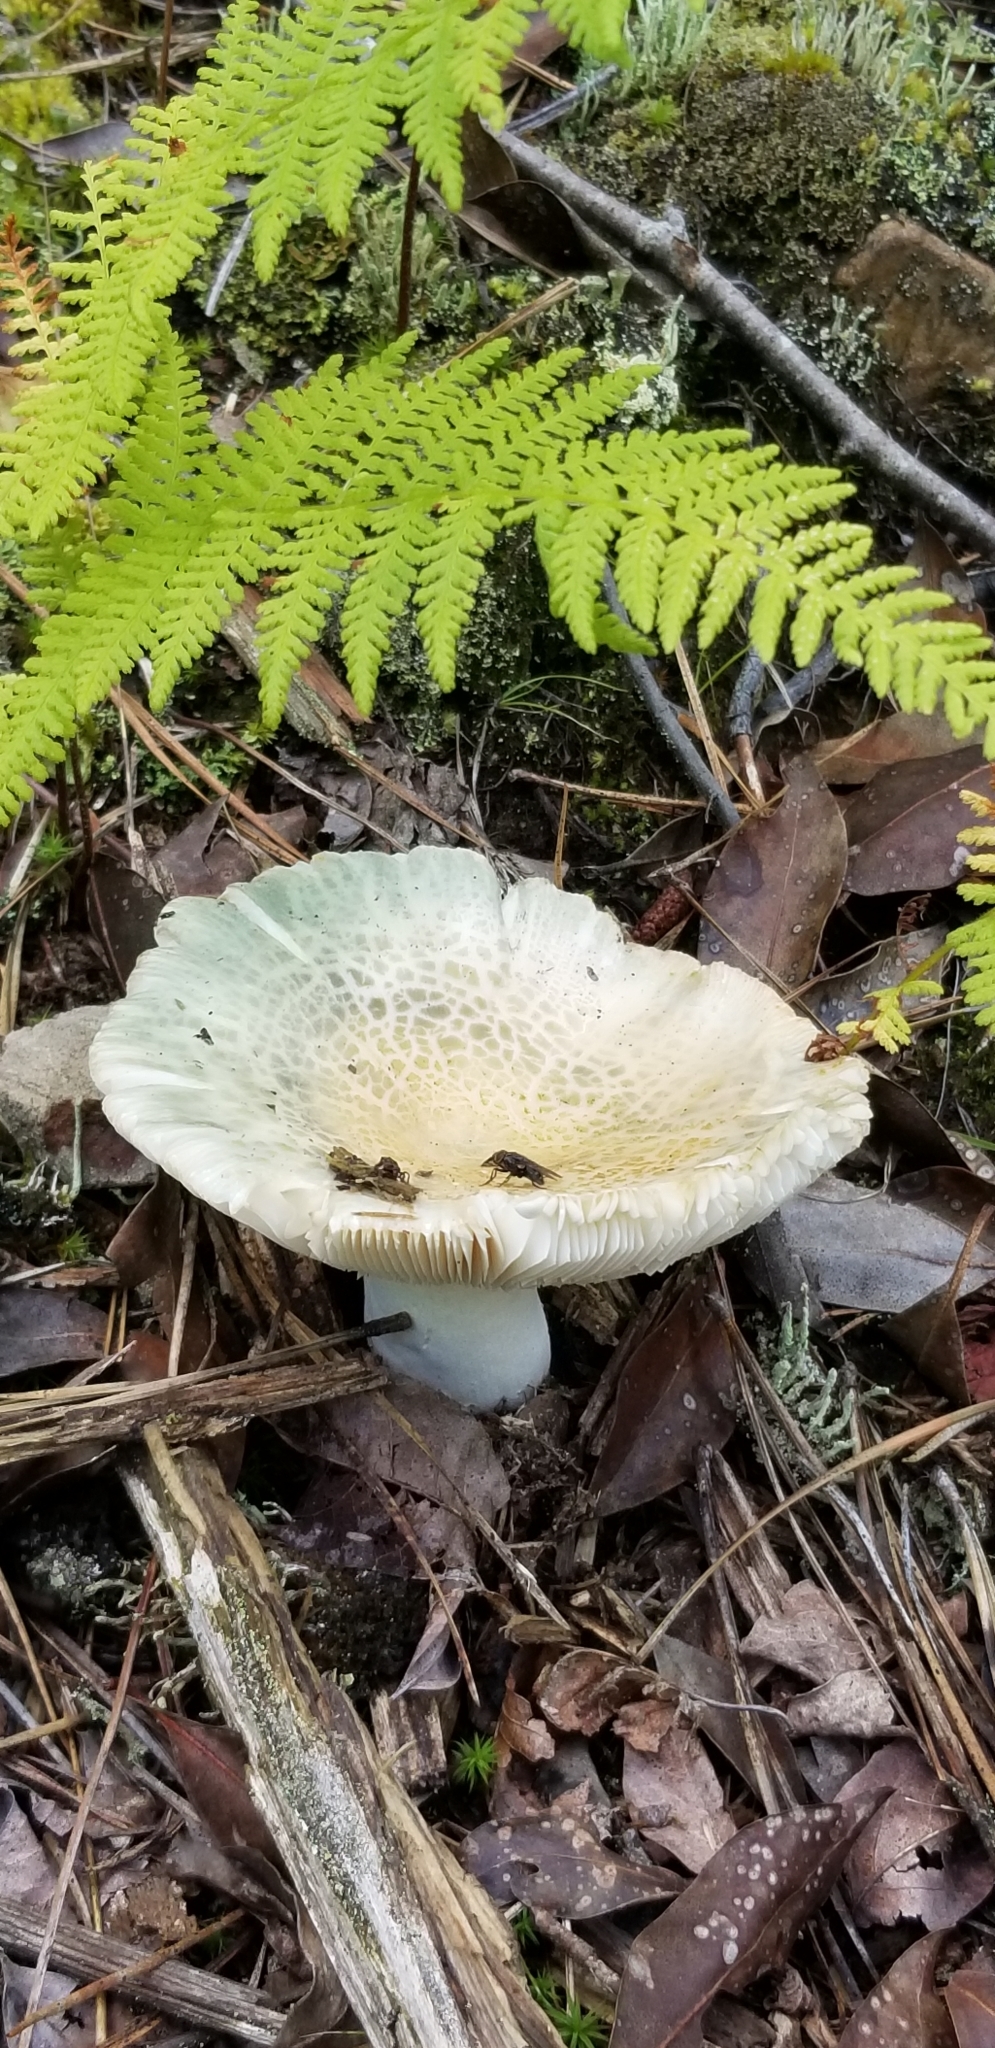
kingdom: Fungi
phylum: Basidiomycota
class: Agaricomycetes
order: Russulales
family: Russulaceae
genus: Russula
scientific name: Russula parvovirescens
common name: Blue-green cracking russula
